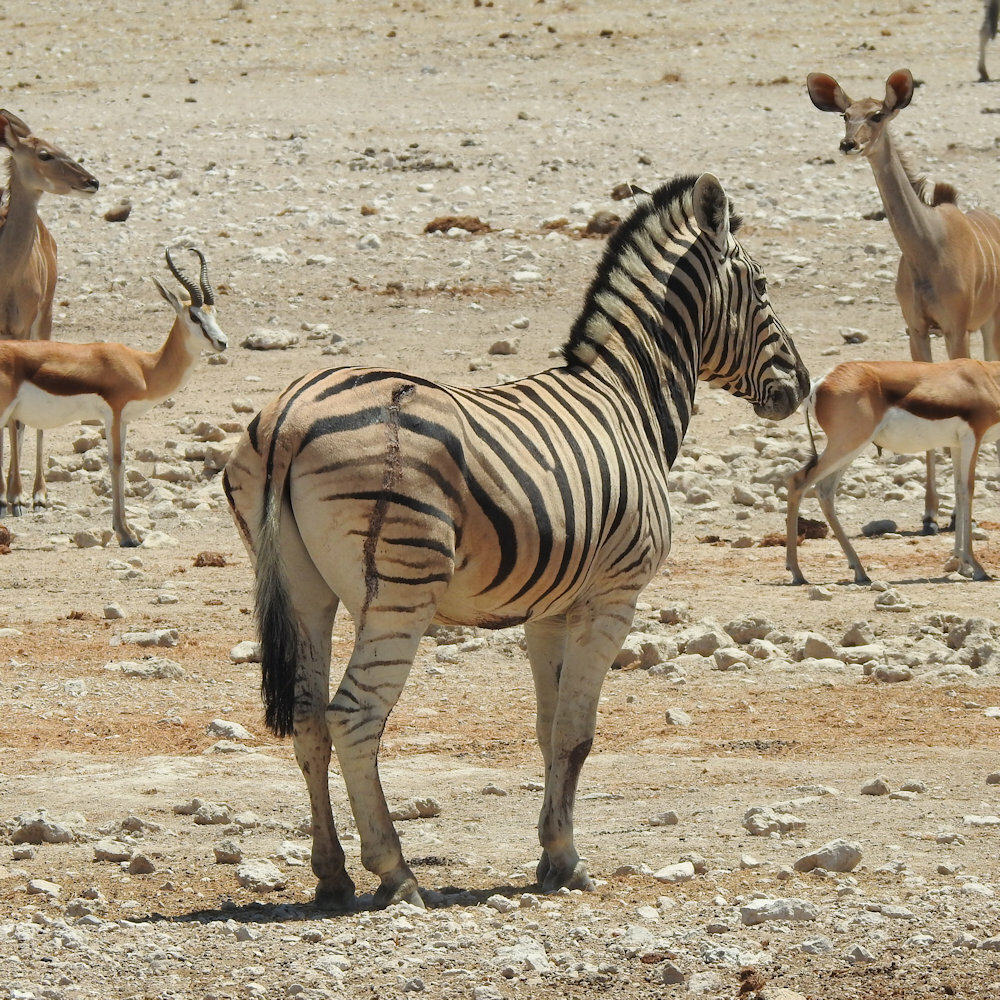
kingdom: Animalia
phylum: Chordata
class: Mammalia
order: Perissodactyla
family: Equidae
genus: Equus
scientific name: Equus quagga
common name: Plains zebra
